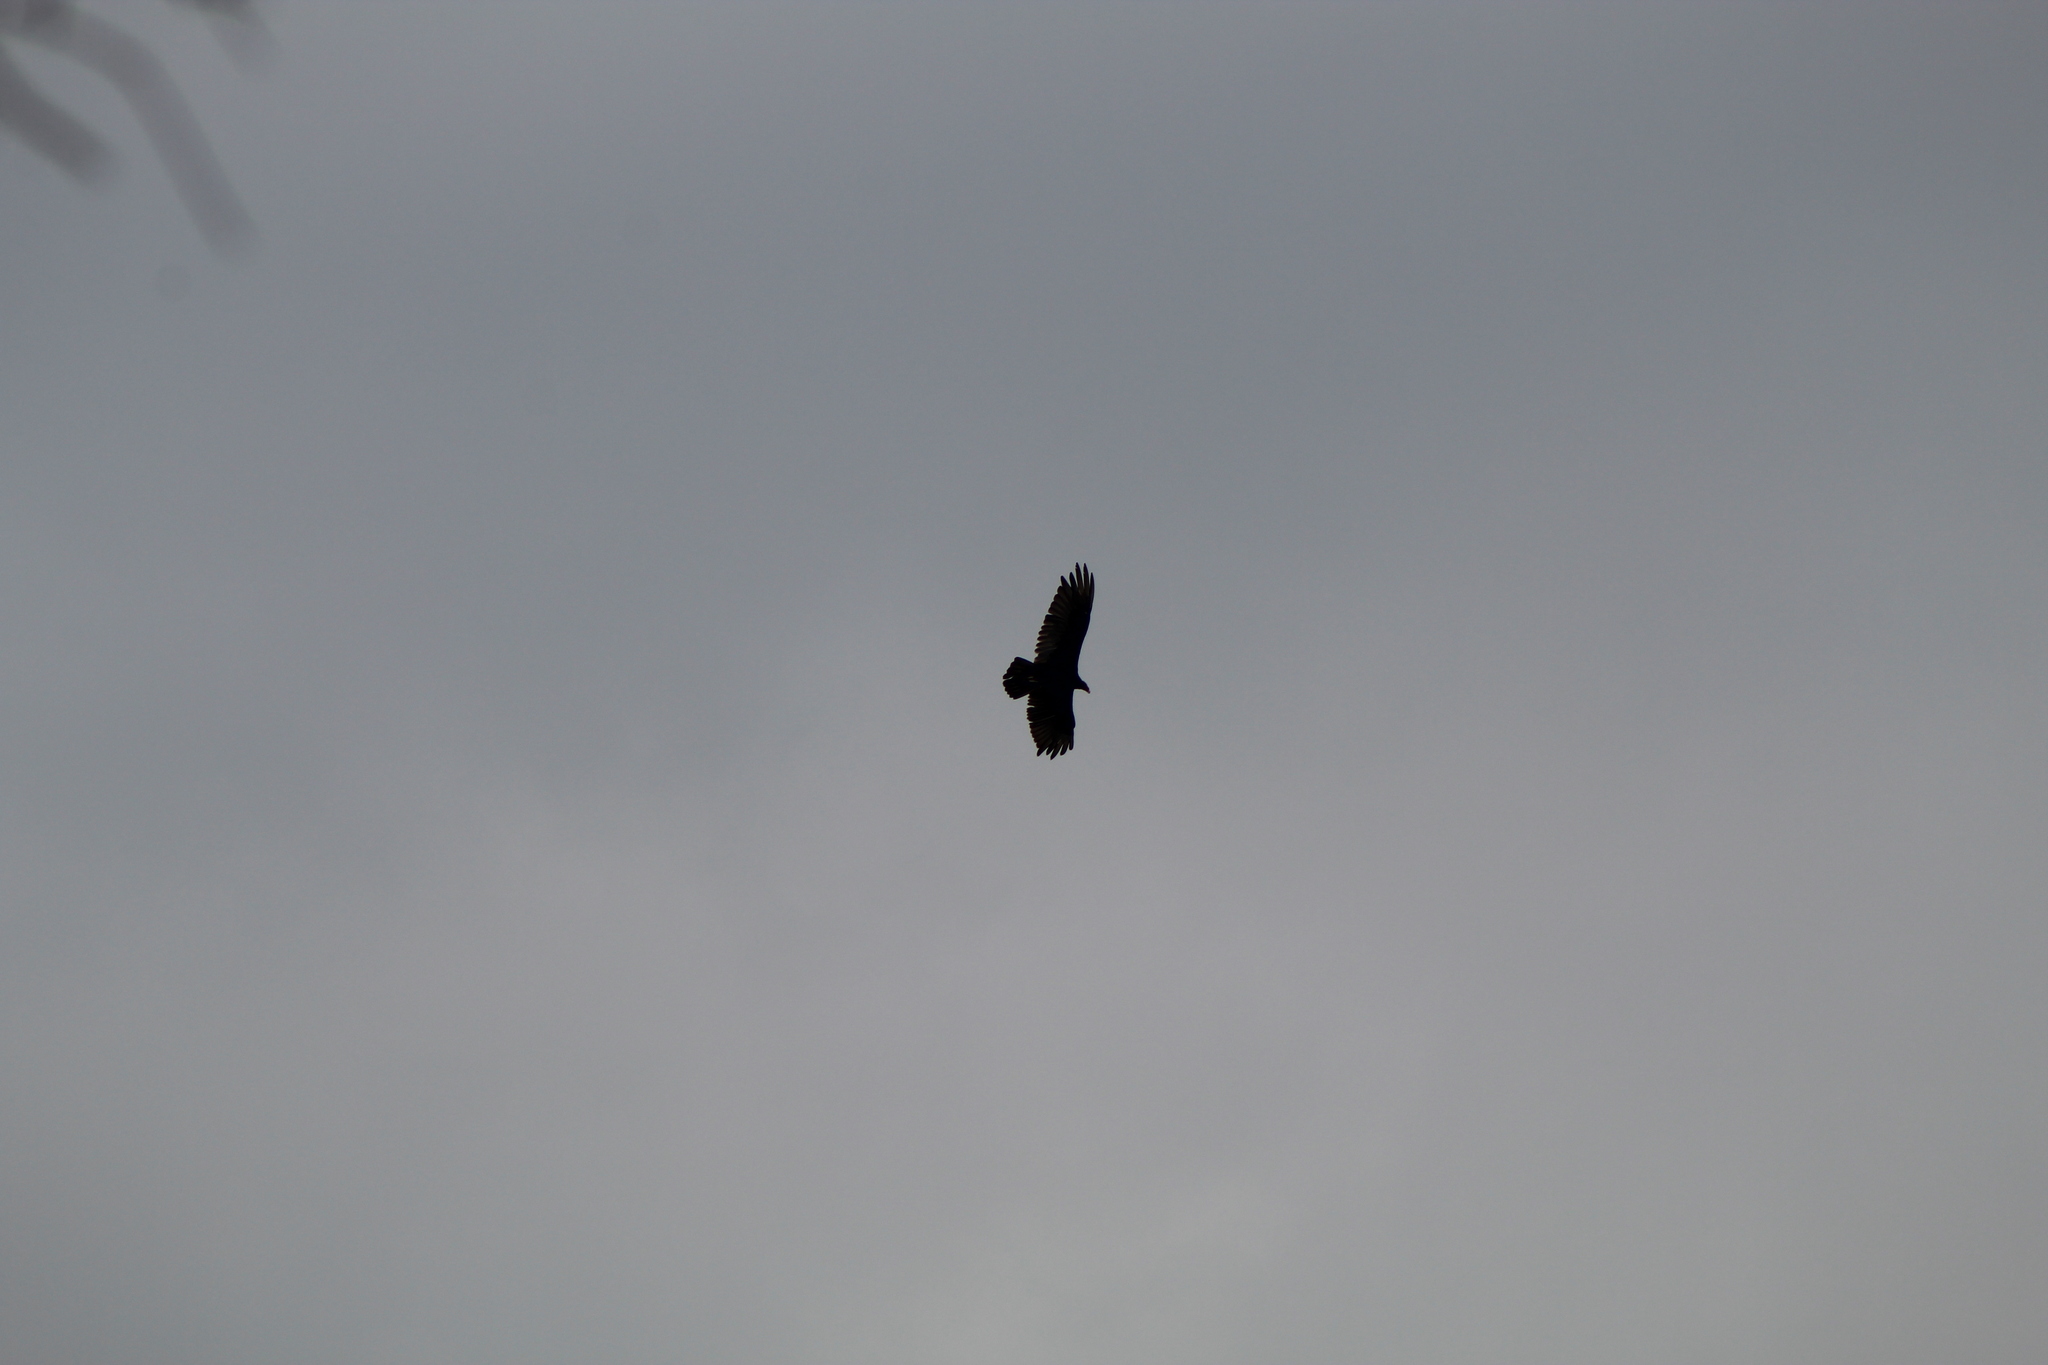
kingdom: Animalia
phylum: Chordata
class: Aves
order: Accipitriformes
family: Cathartidae
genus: Cathartes
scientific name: Cathartes aura
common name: Turkey vulture
